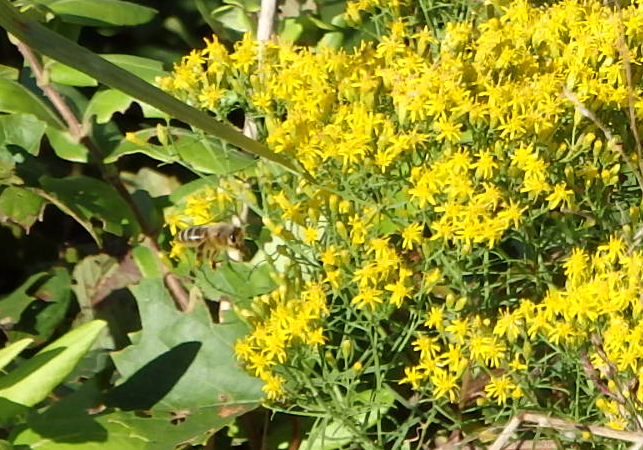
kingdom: Animalia
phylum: Arthropoda
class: Insecta
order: Hymenoptera
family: Apidae
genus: Apis
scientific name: Apis mellifera
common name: Honey bee
